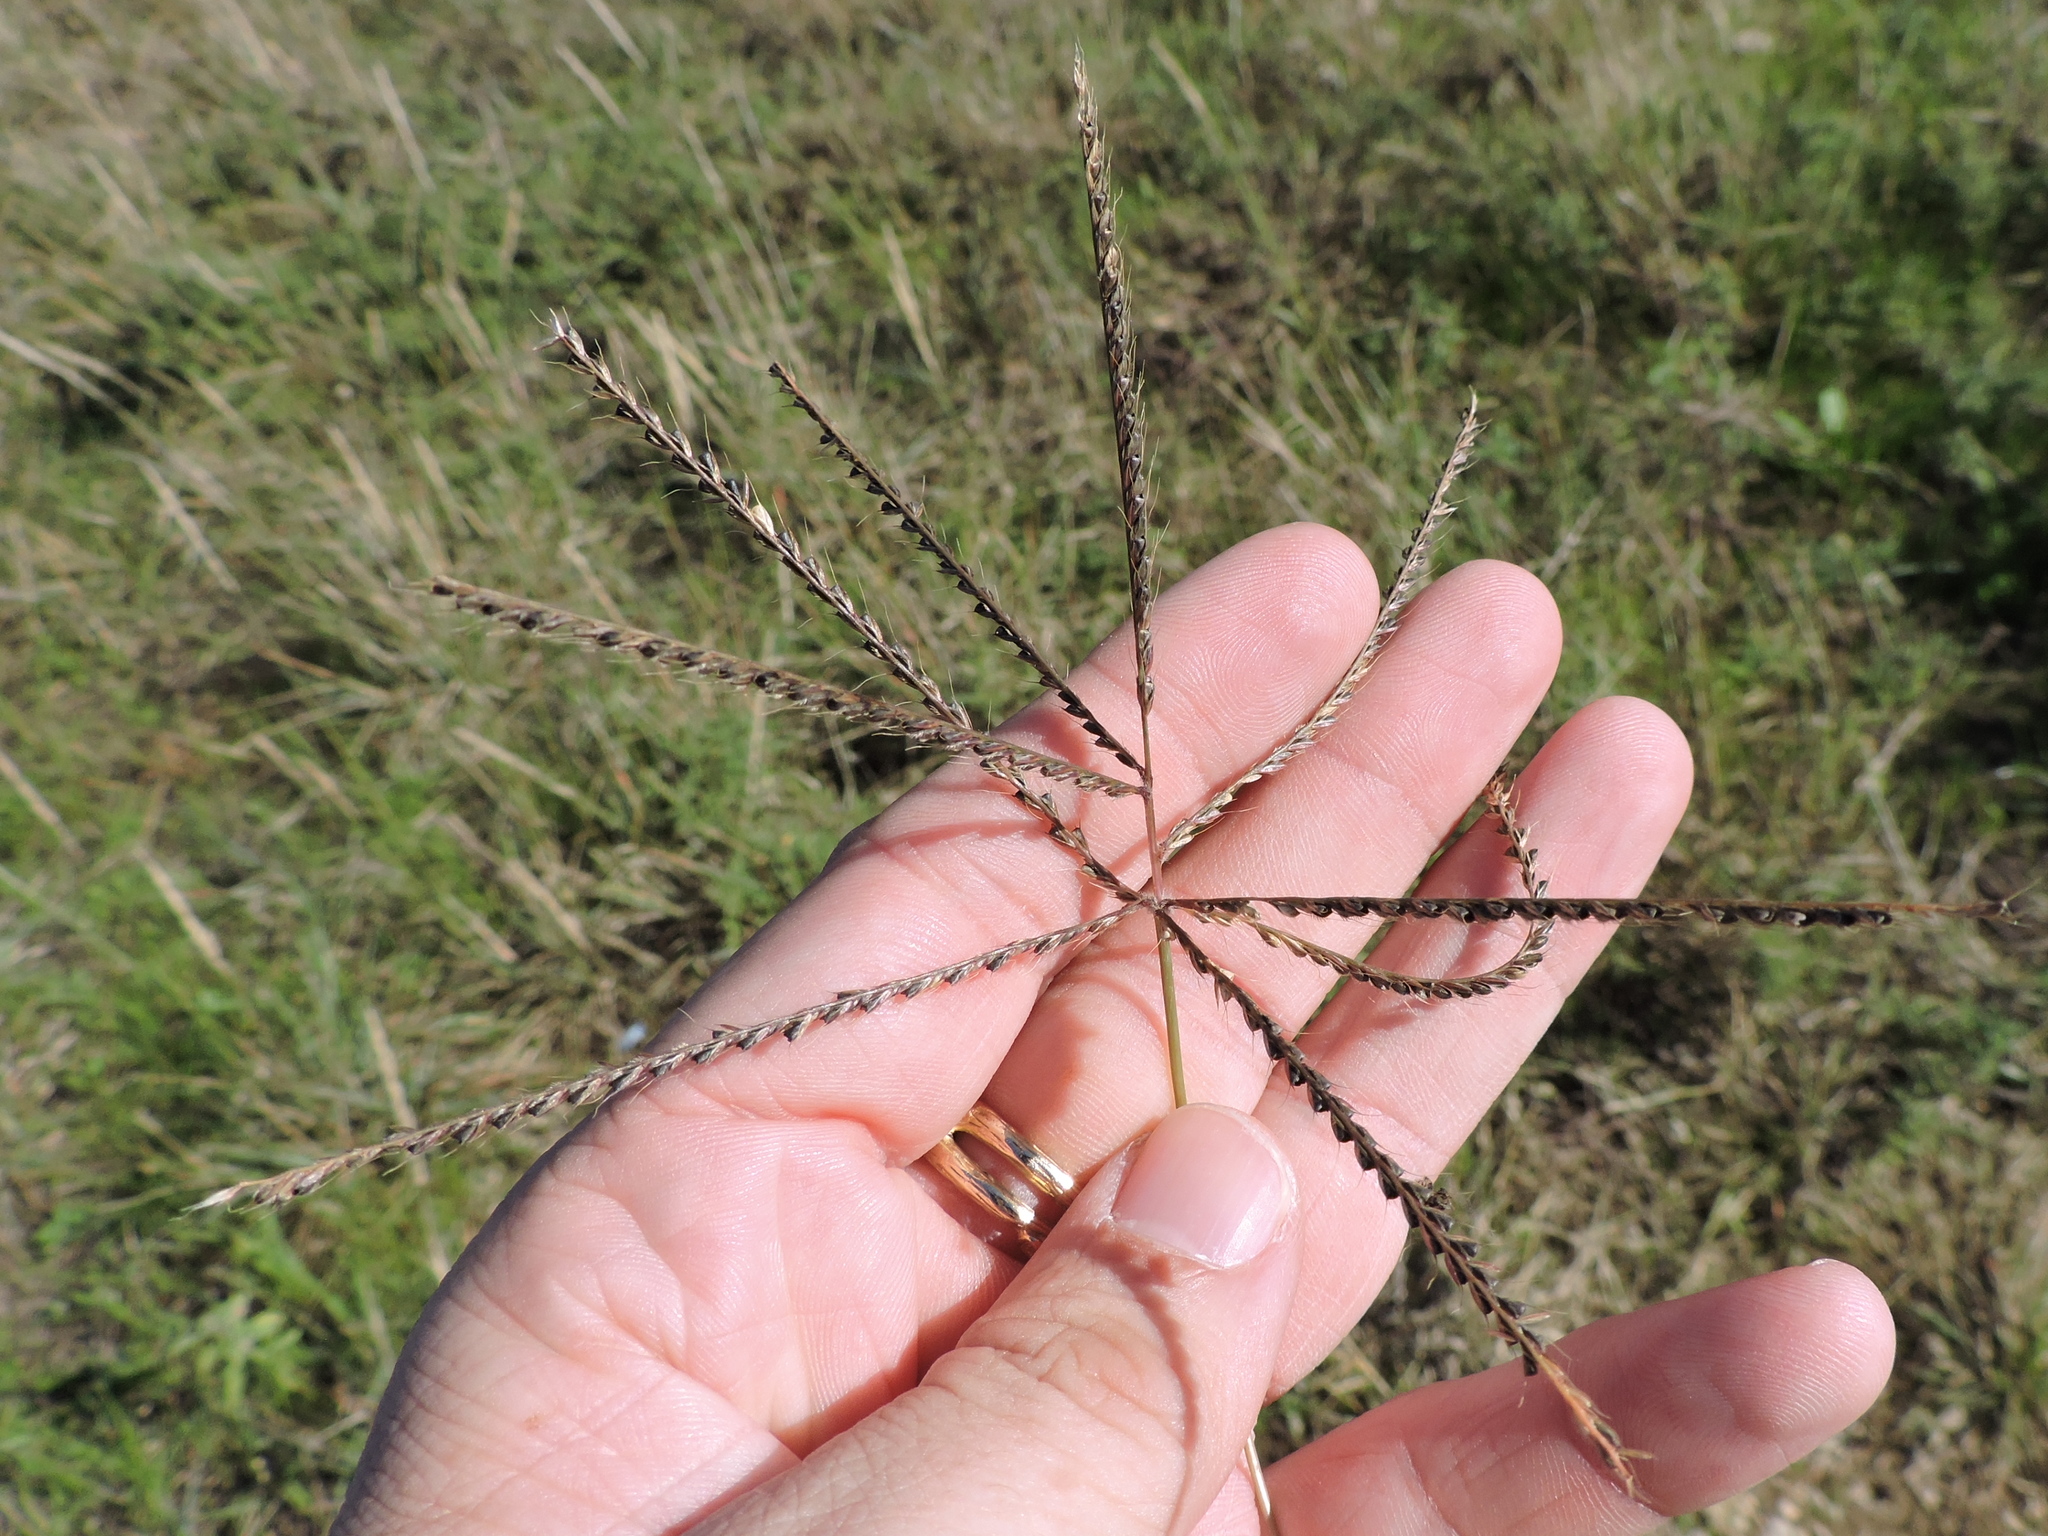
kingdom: Plantae
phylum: Tracheophyta
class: Liliopsida
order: Poales
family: Poaceae
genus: Chloris
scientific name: Chloris verticillata
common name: Tumble windmill grass
